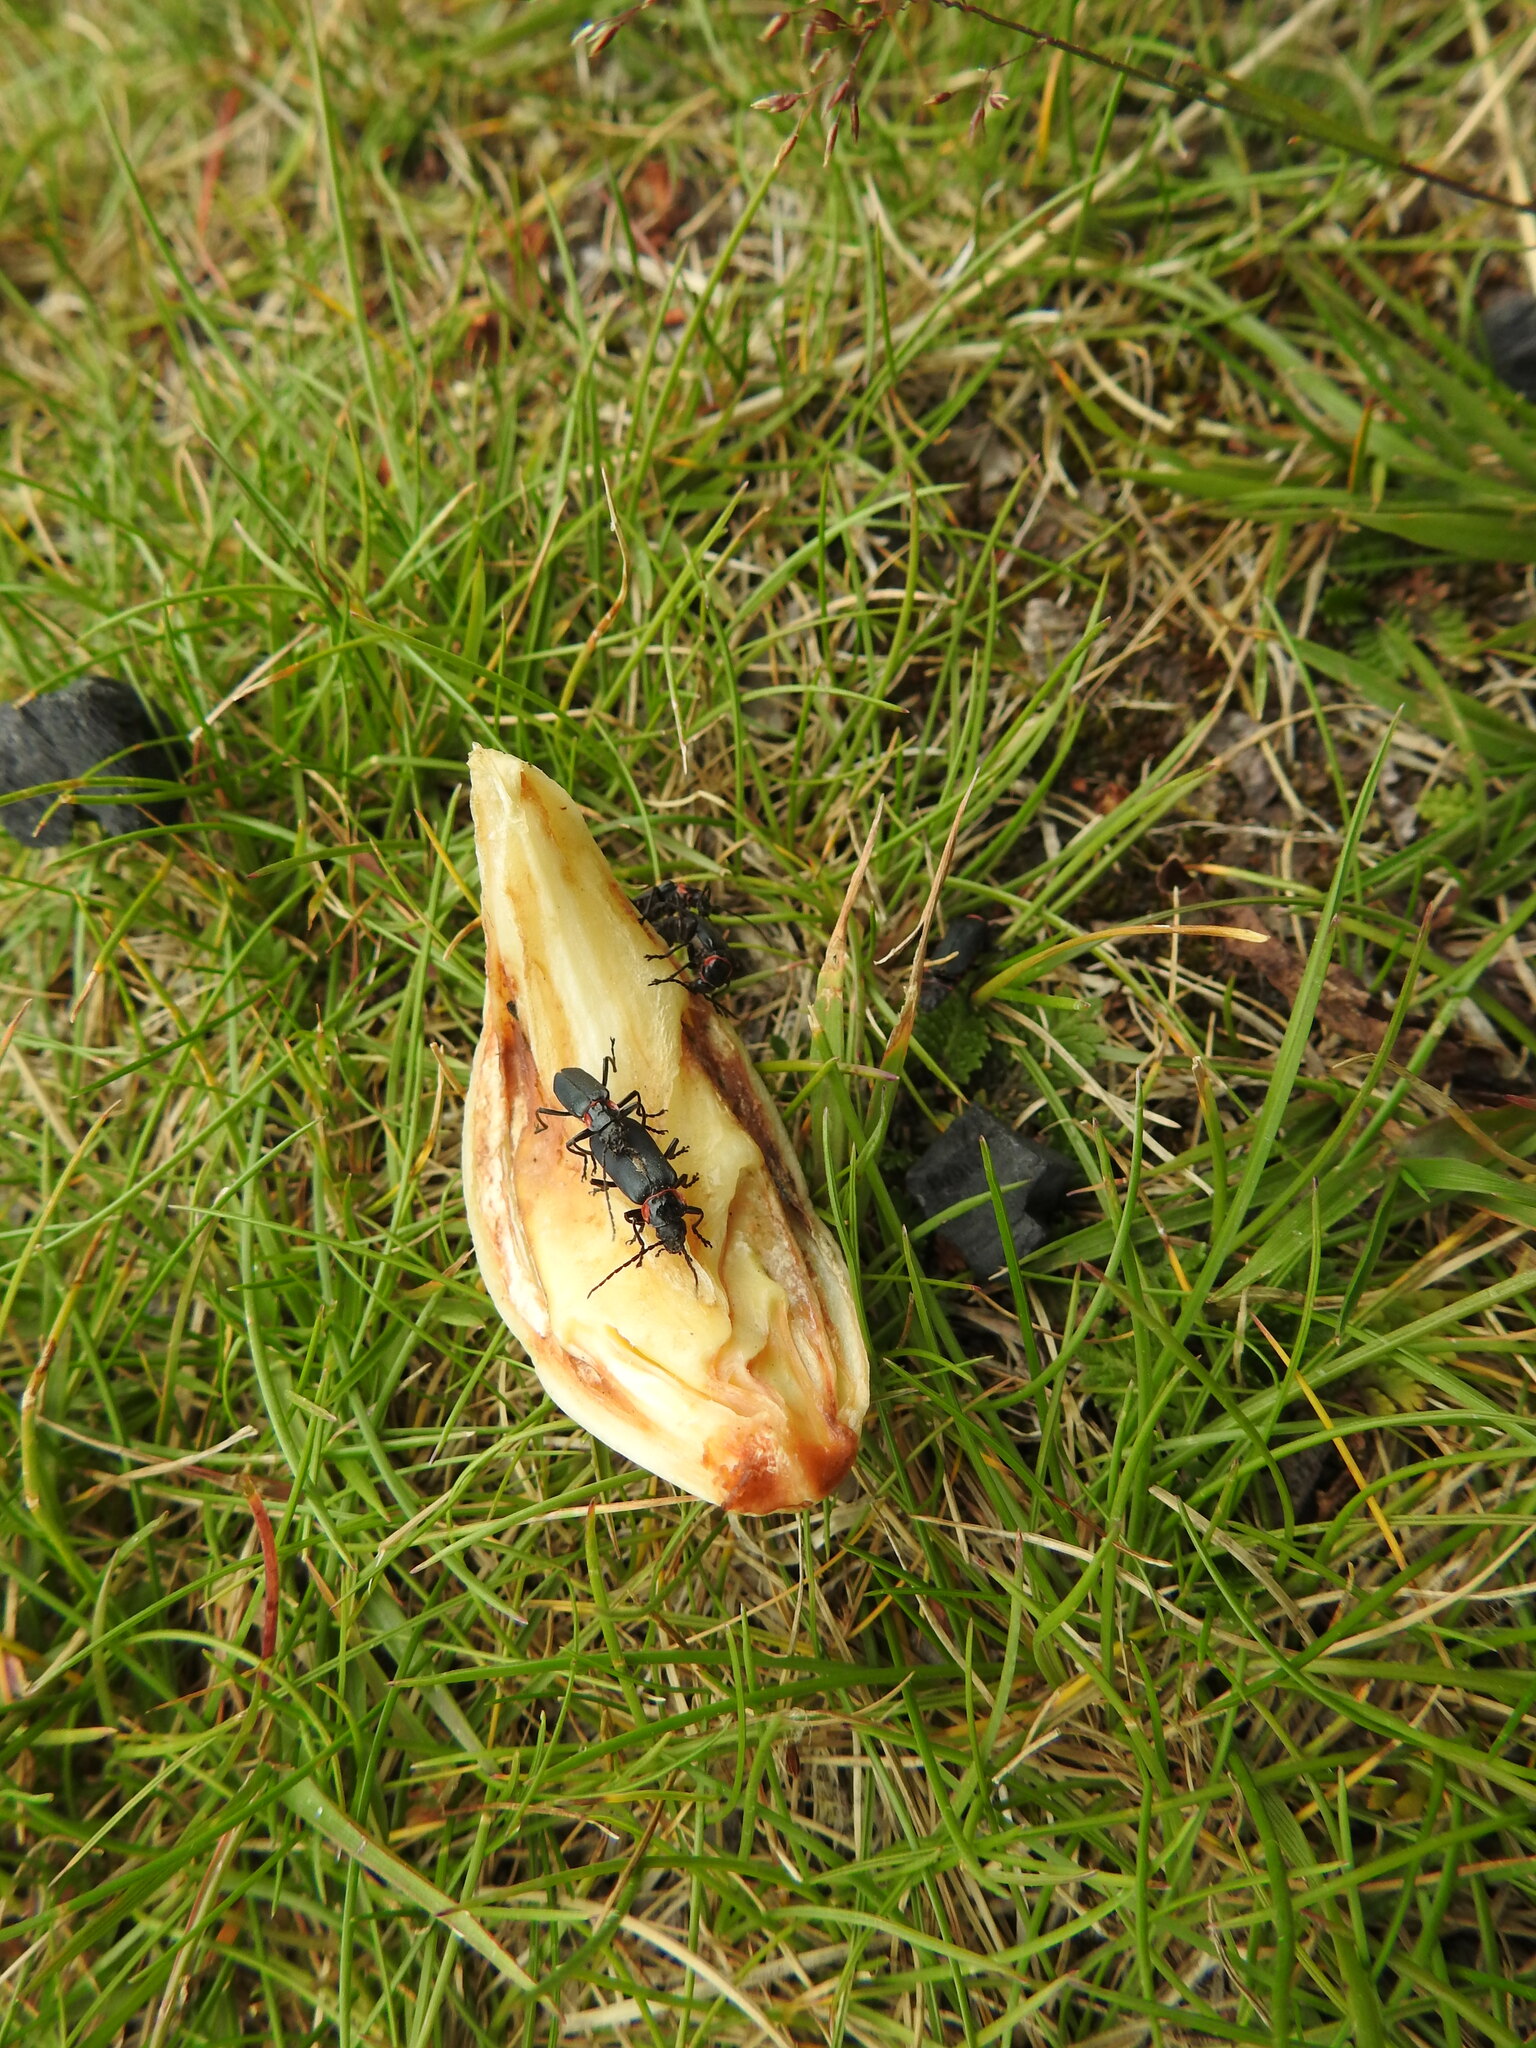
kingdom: Animalia
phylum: Arthropoda
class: Insecta
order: Coleoptera
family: Cantharidae
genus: Chauliognathus
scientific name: Chauliognathus
